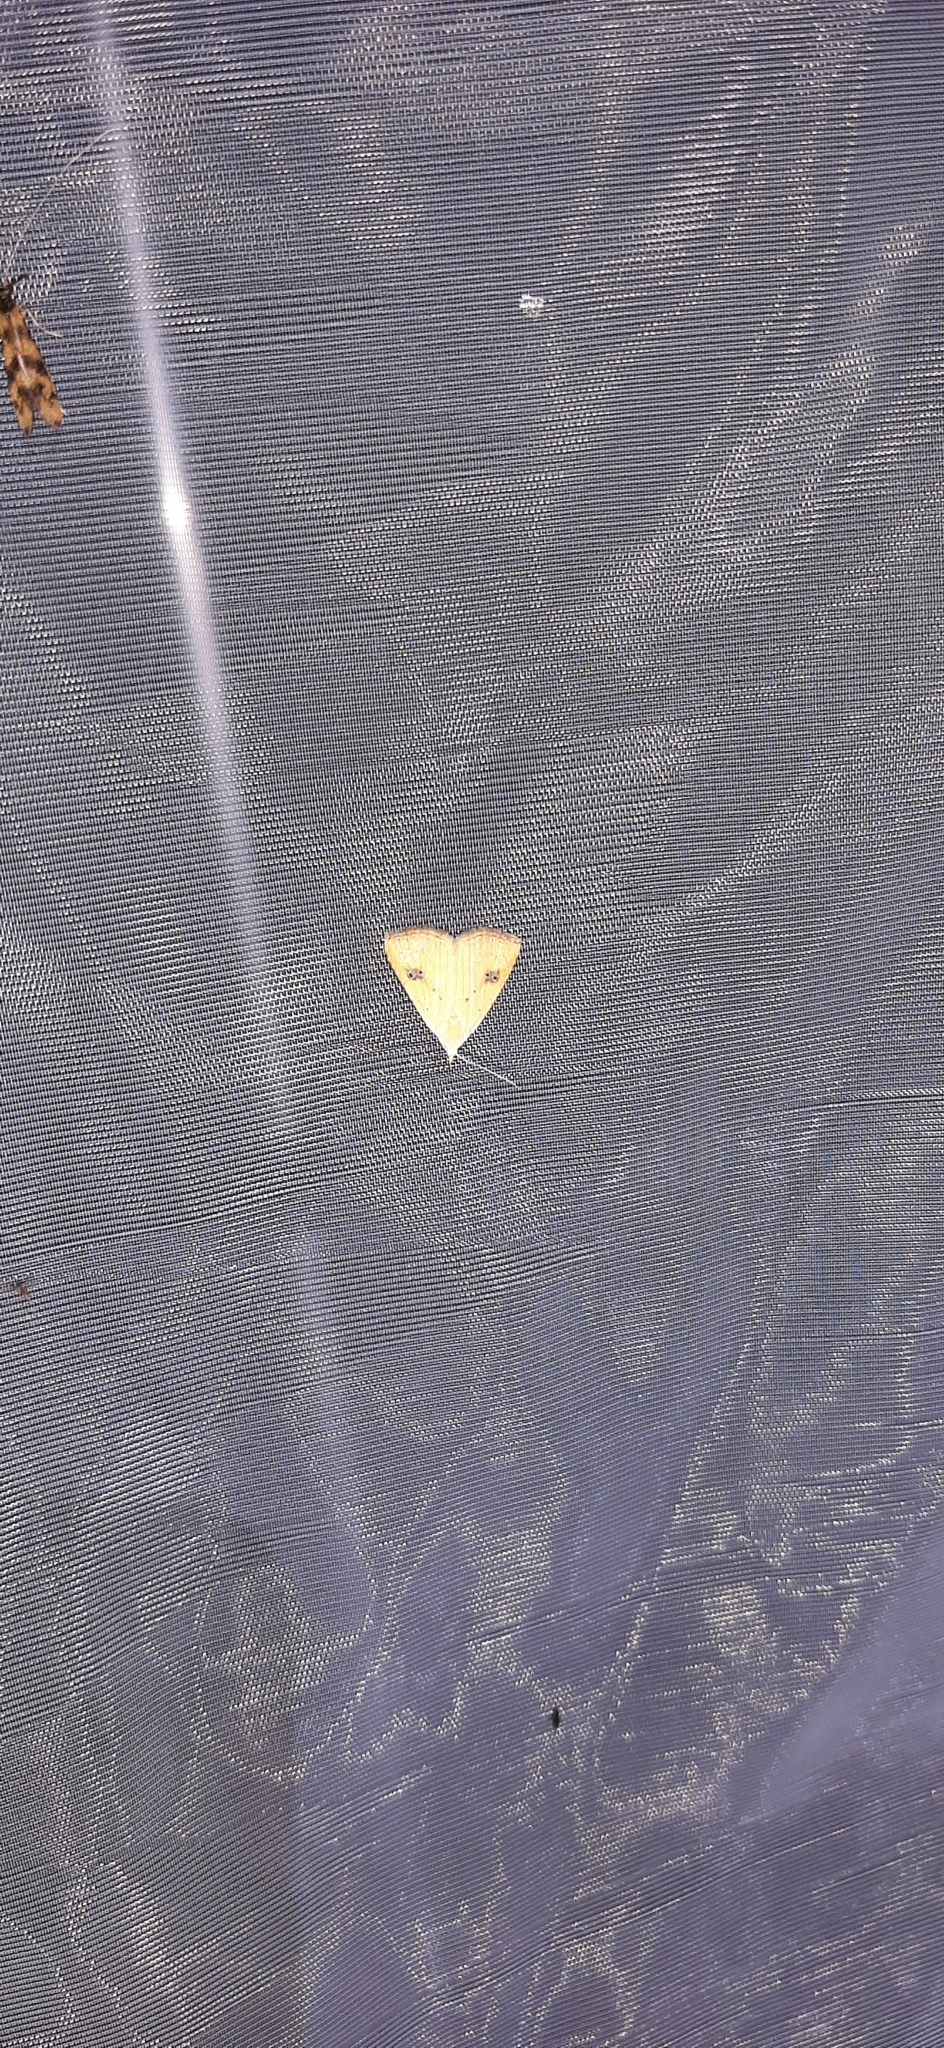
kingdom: Animalia
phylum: Arthropoda
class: Insecta
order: Lepidoptera
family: Erebidae
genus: Rivula
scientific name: Rivula sericealis
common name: Straw dot
